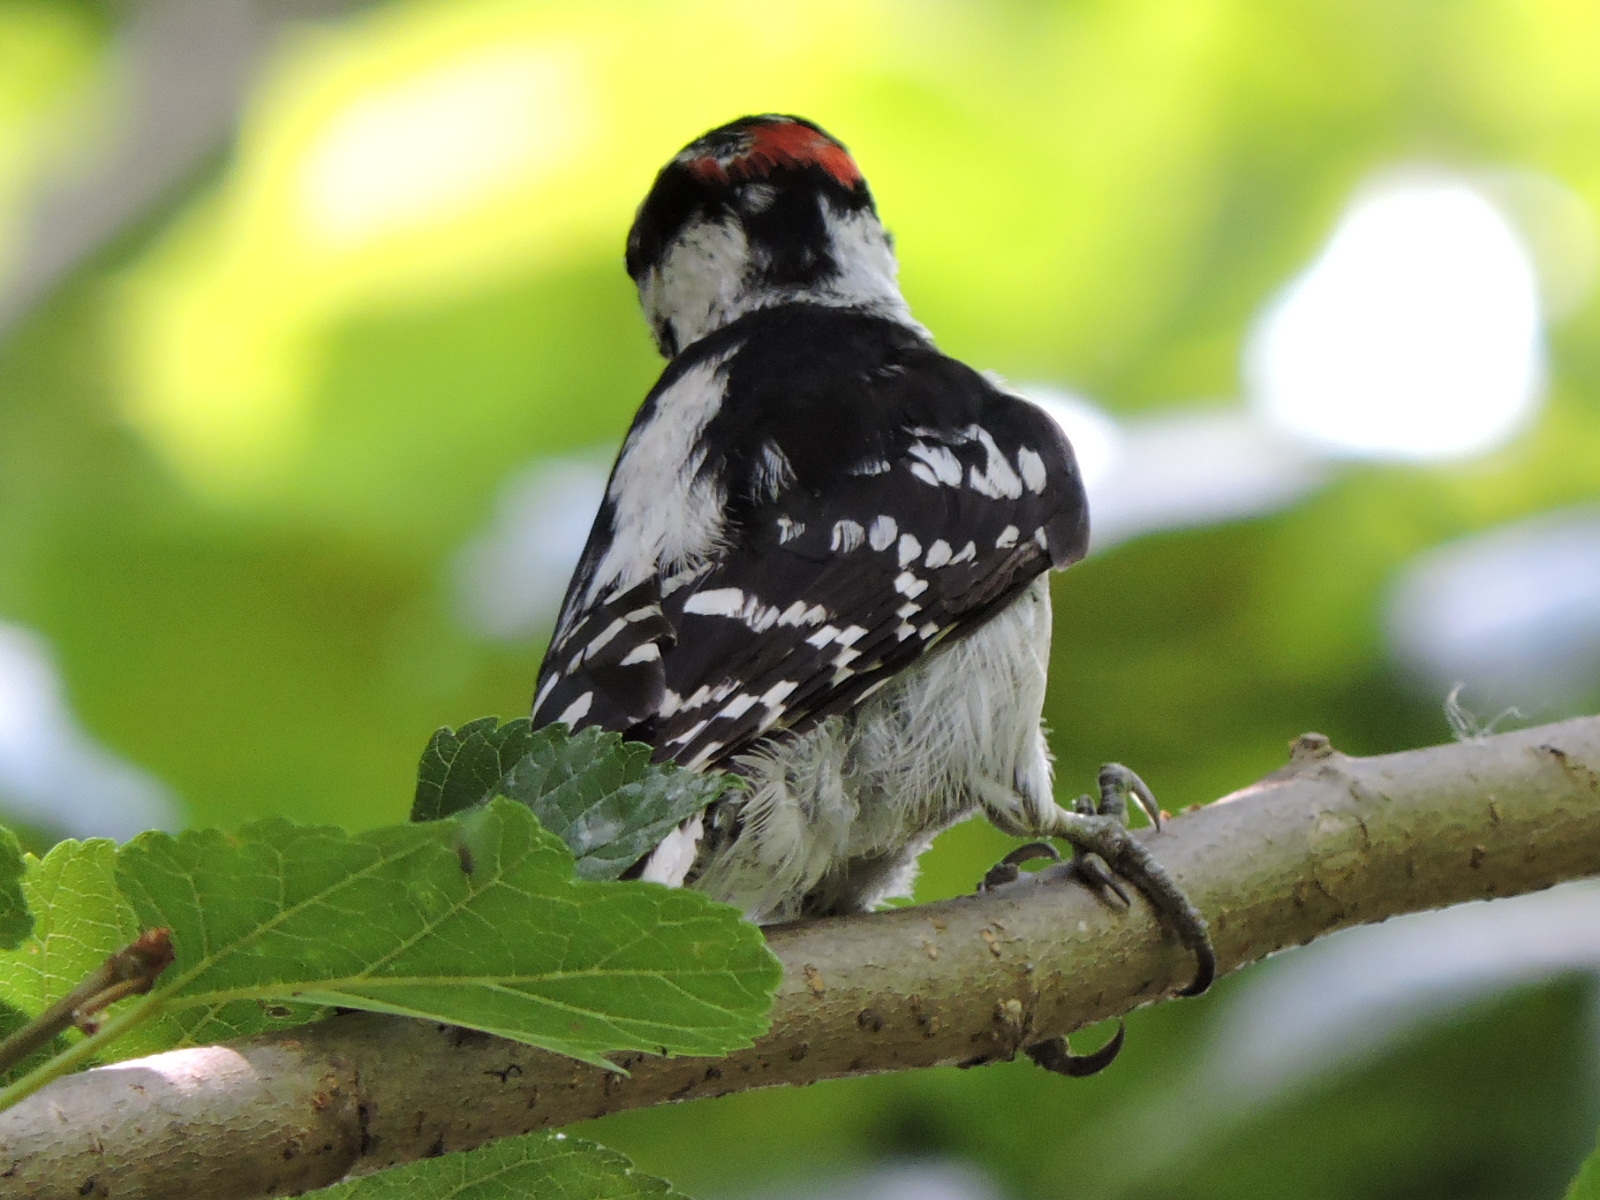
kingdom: Animalia
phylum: Chordata
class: Aves
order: Piciformes
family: Picidae
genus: Dryobates
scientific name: Dryobates pubescens
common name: Downy woodpecker
